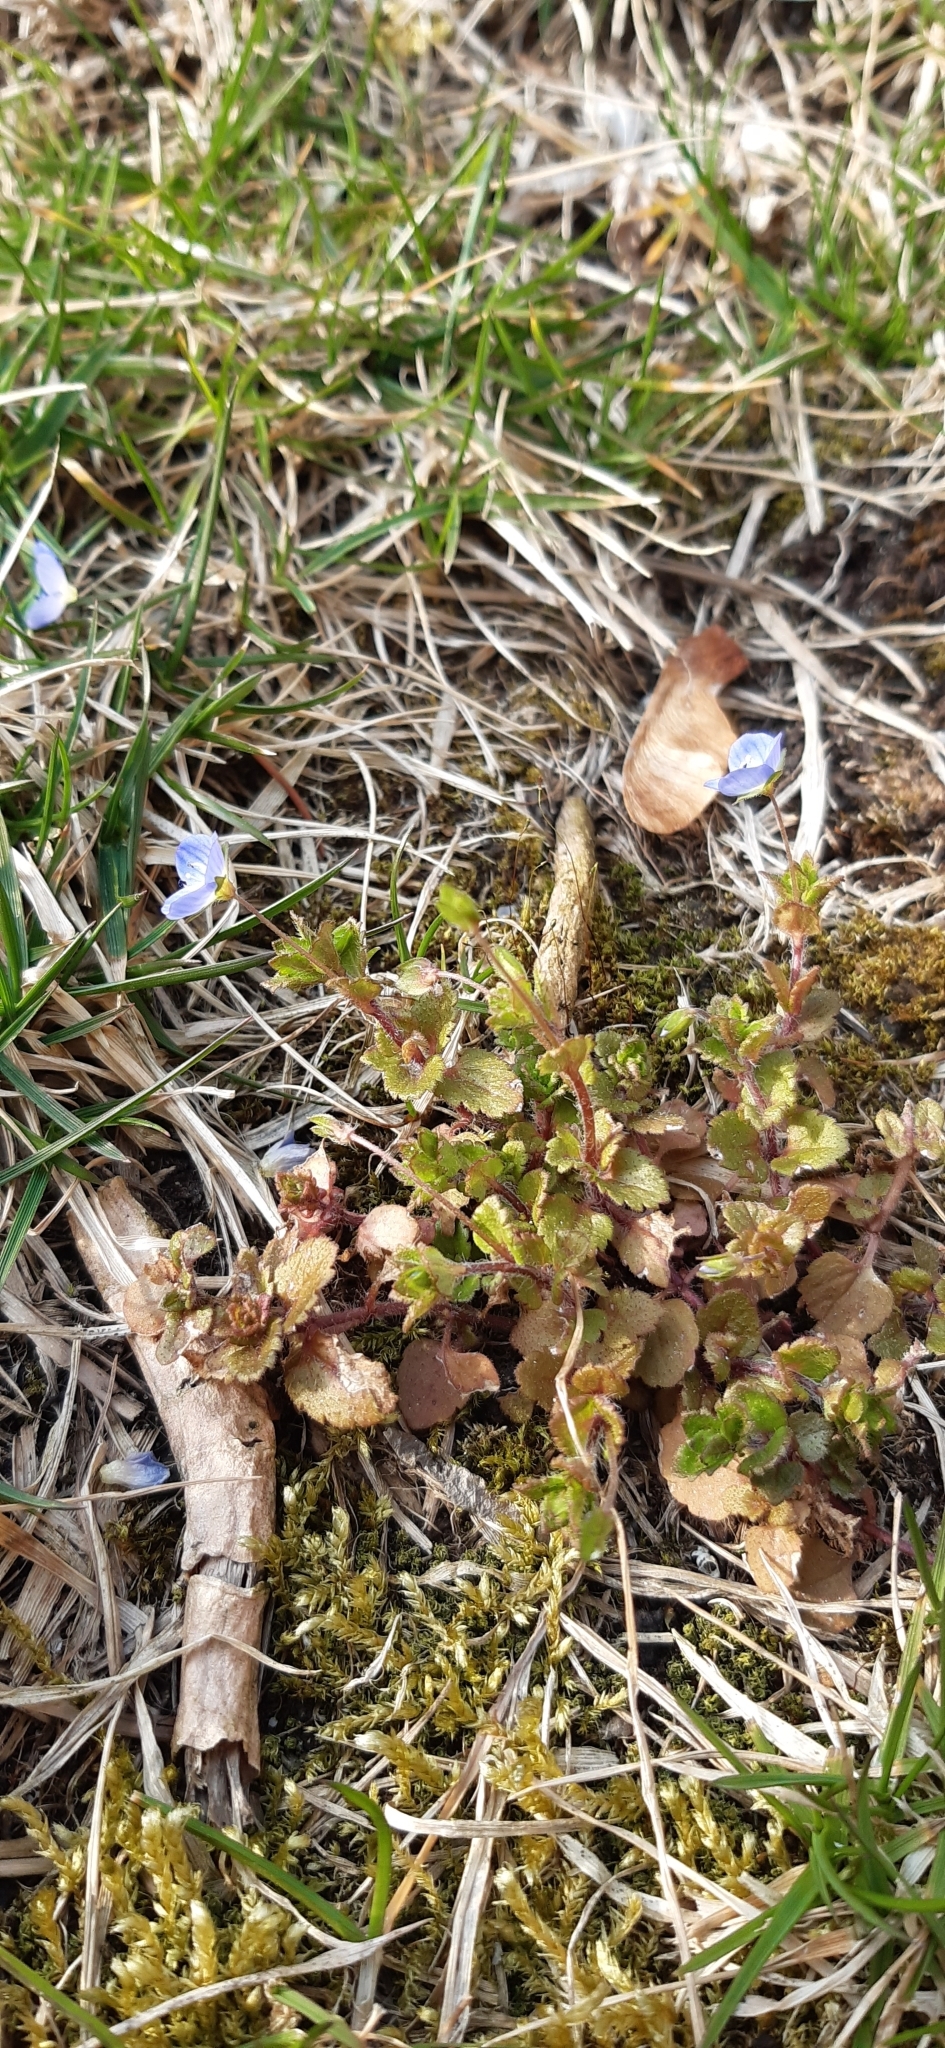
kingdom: Plantae
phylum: Tracheophyta
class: Magnoliopsida
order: Lamiales
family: Plantaginaceae
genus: Veronica
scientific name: Veronica persica
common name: Common field-speedwell
